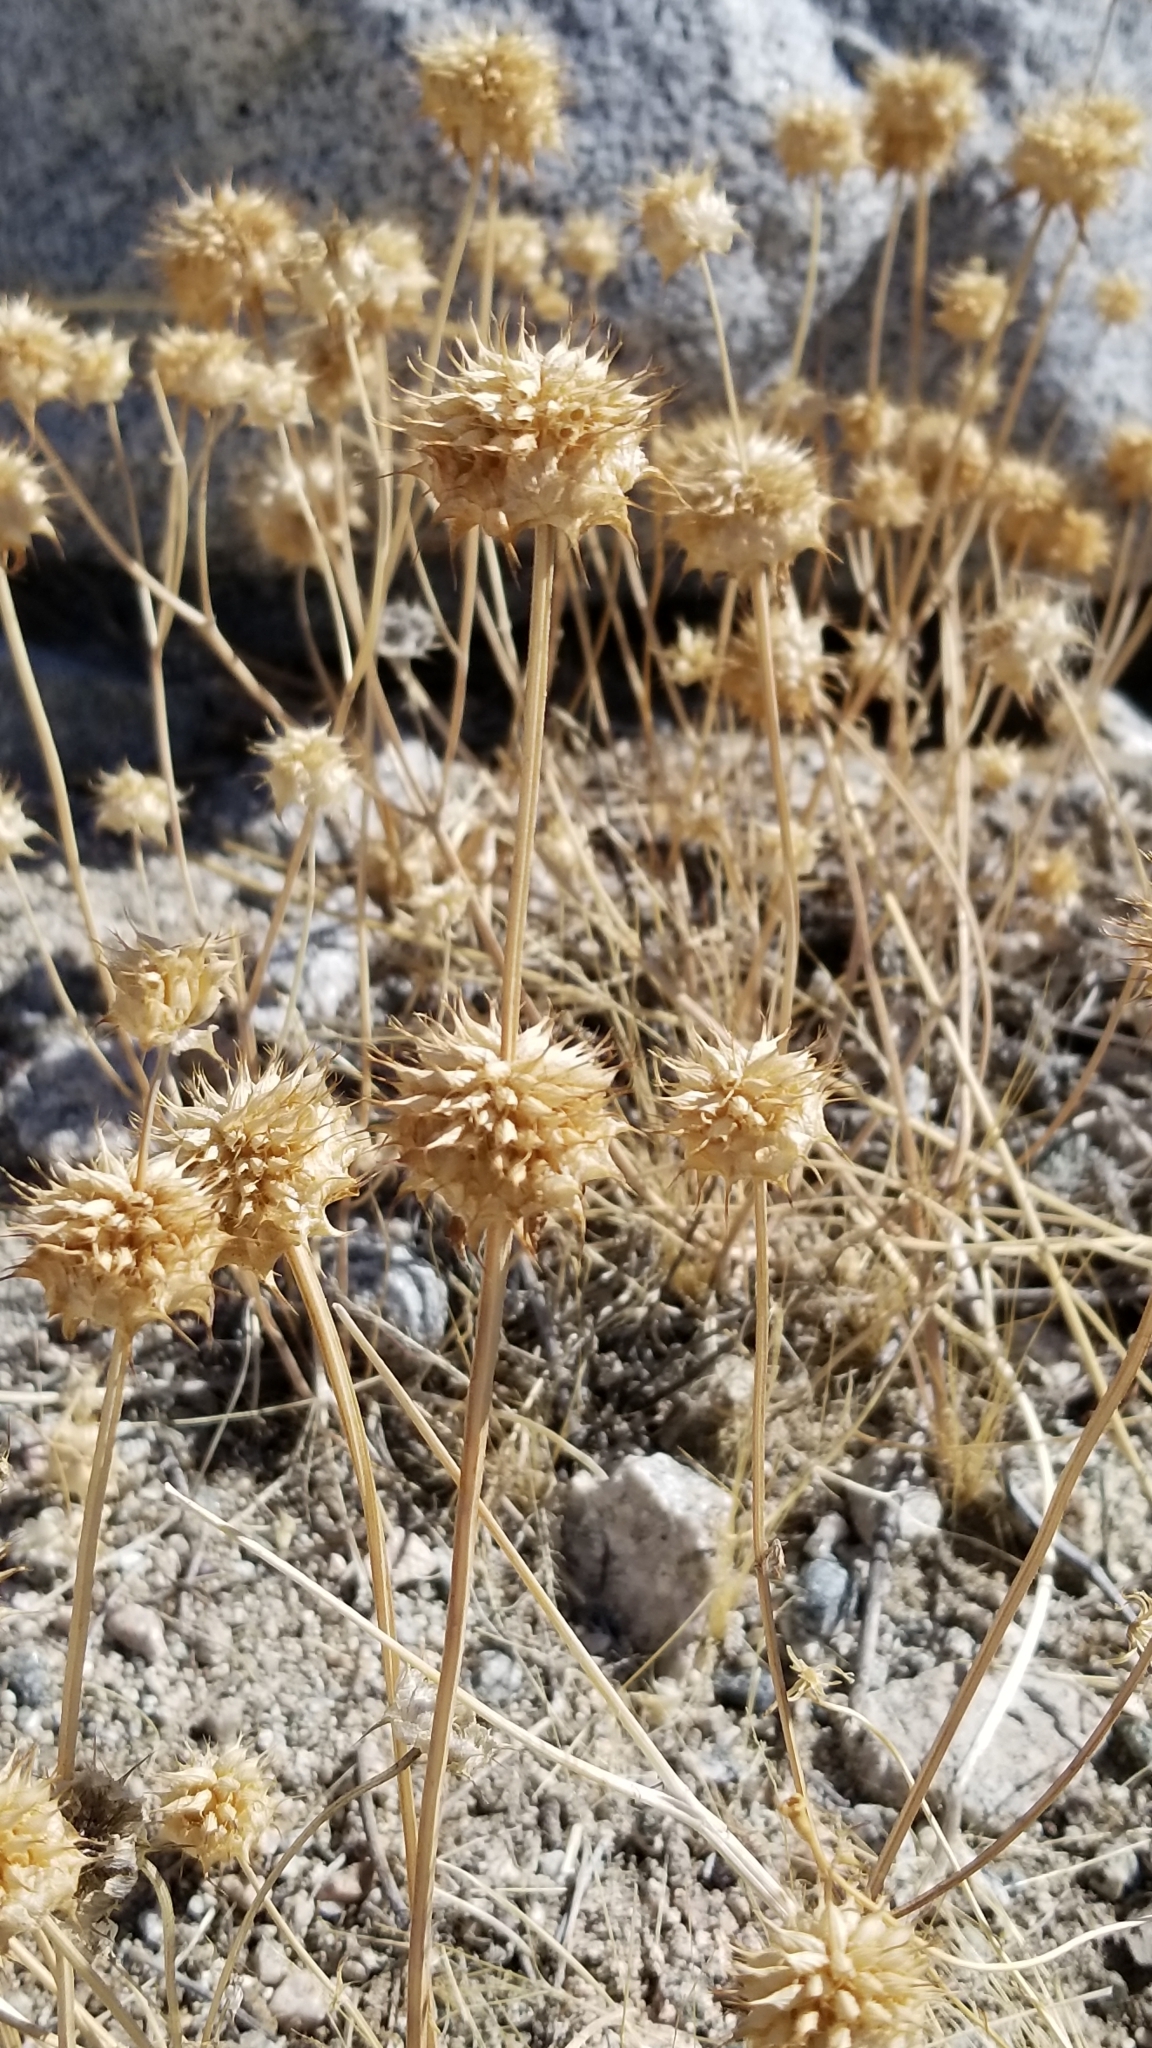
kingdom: Plantae
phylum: Tracheophyta
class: Magnoliopsida
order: Lamiales
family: Lamiaceae
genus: Salvia
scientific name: Salvia columbariae
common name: Chia
